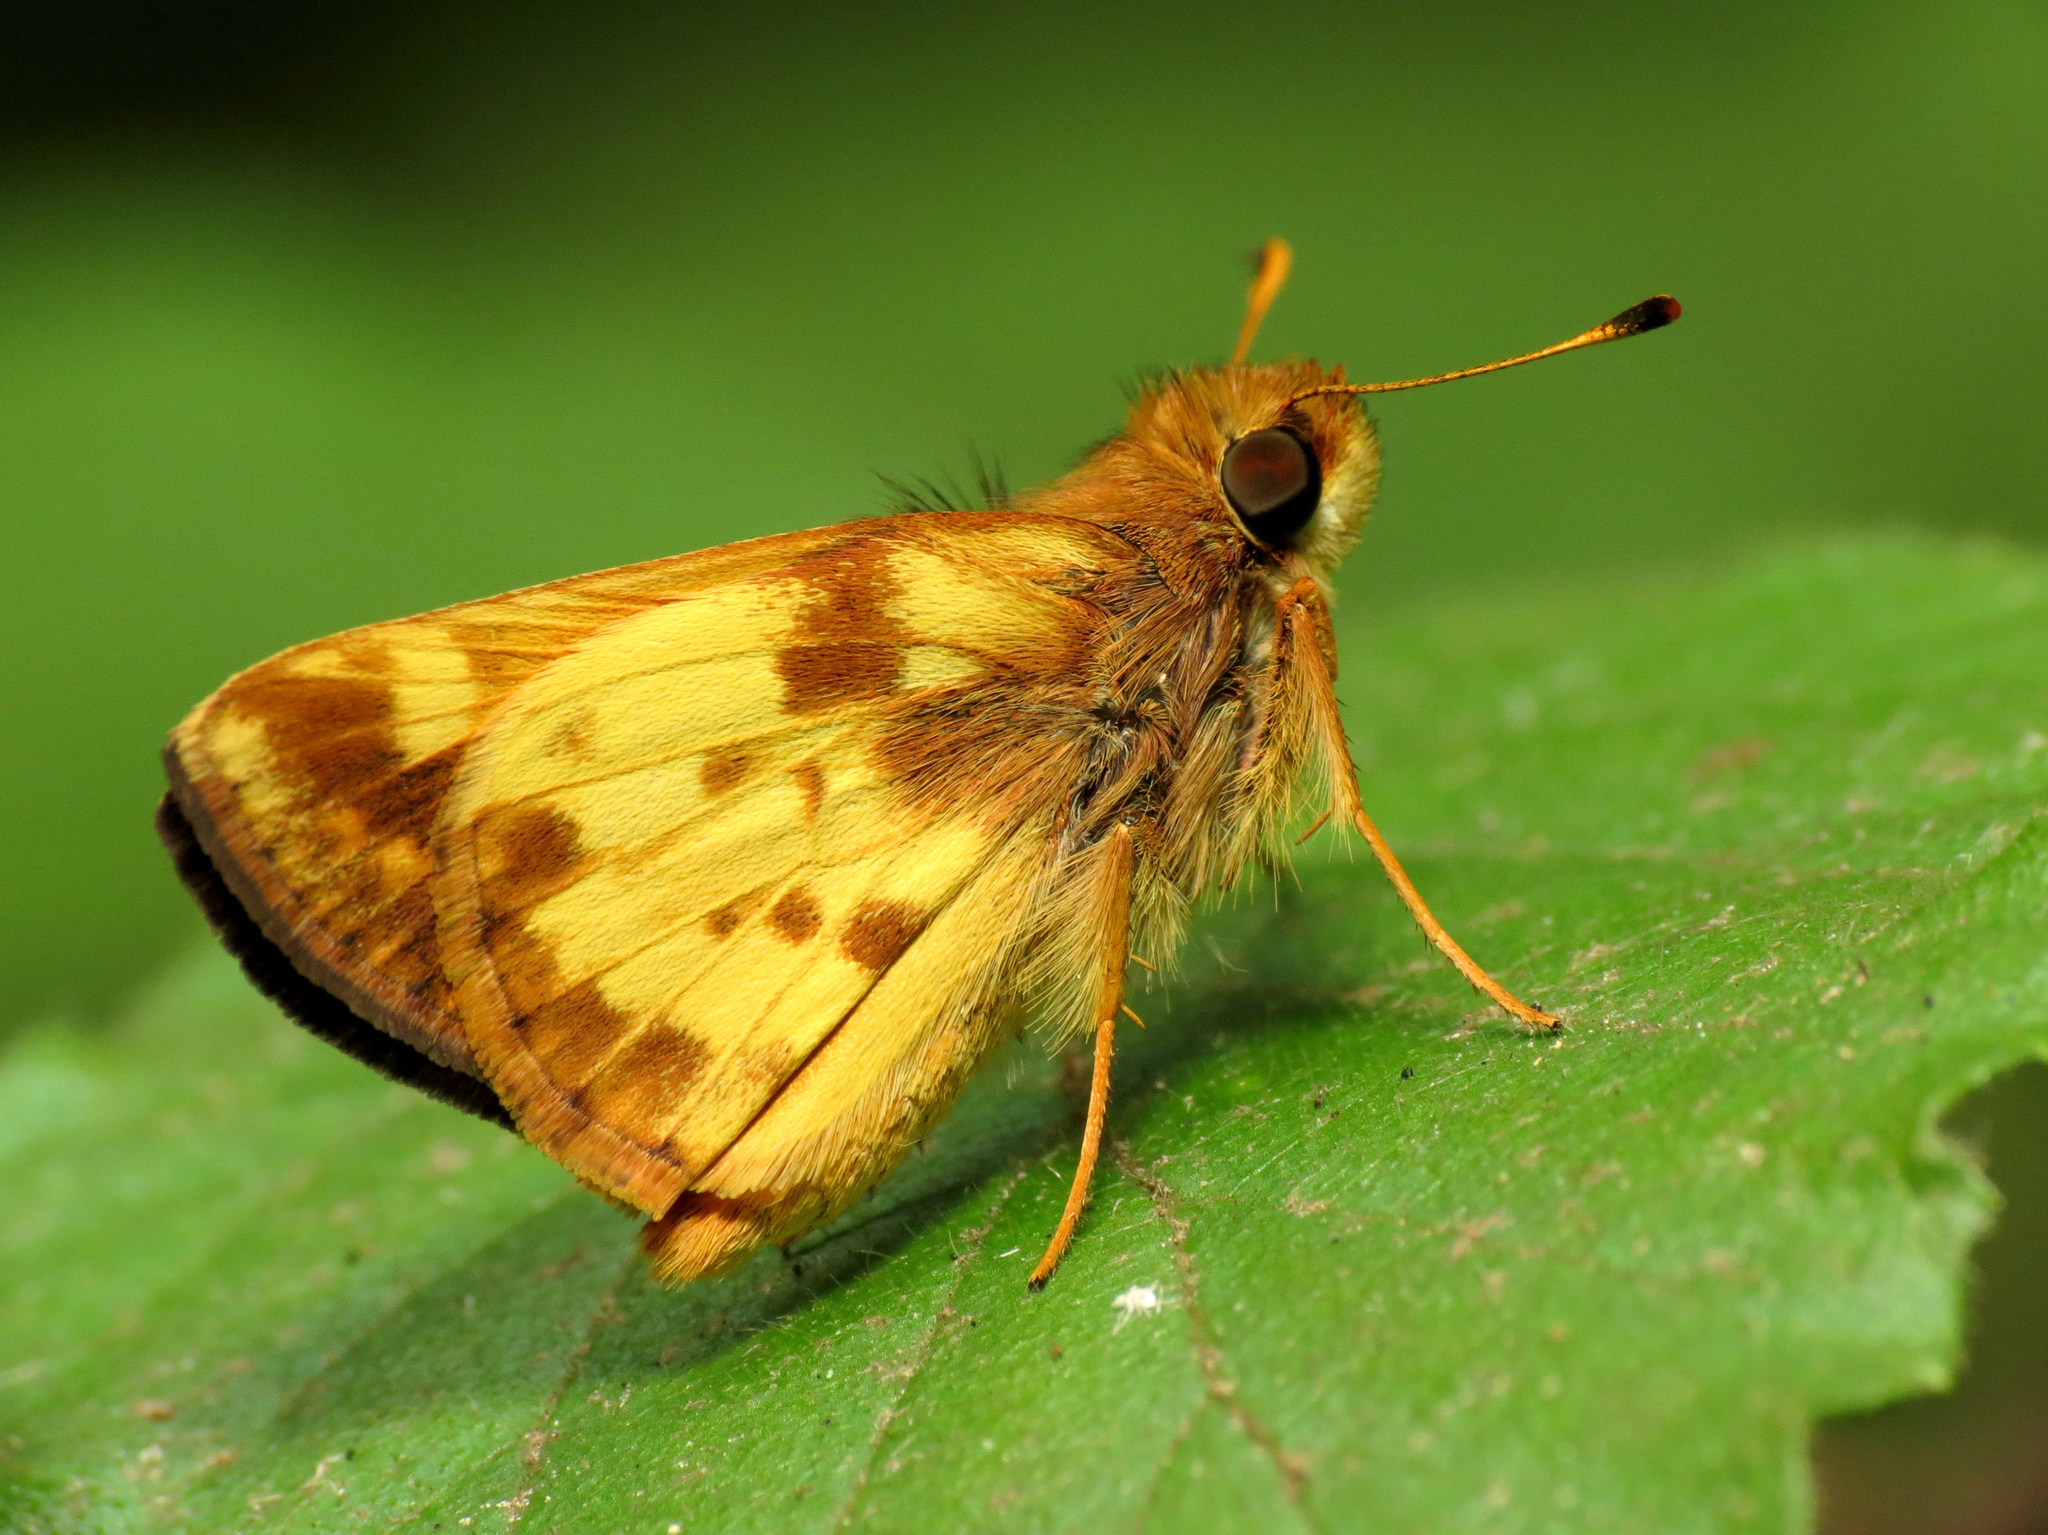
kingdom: Animalia
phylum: Arthropoda
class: Insecta
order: Lepidoptera
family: Hesperiidae
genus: Lon
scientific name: Lon zabulon
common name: Zabulon skipper
